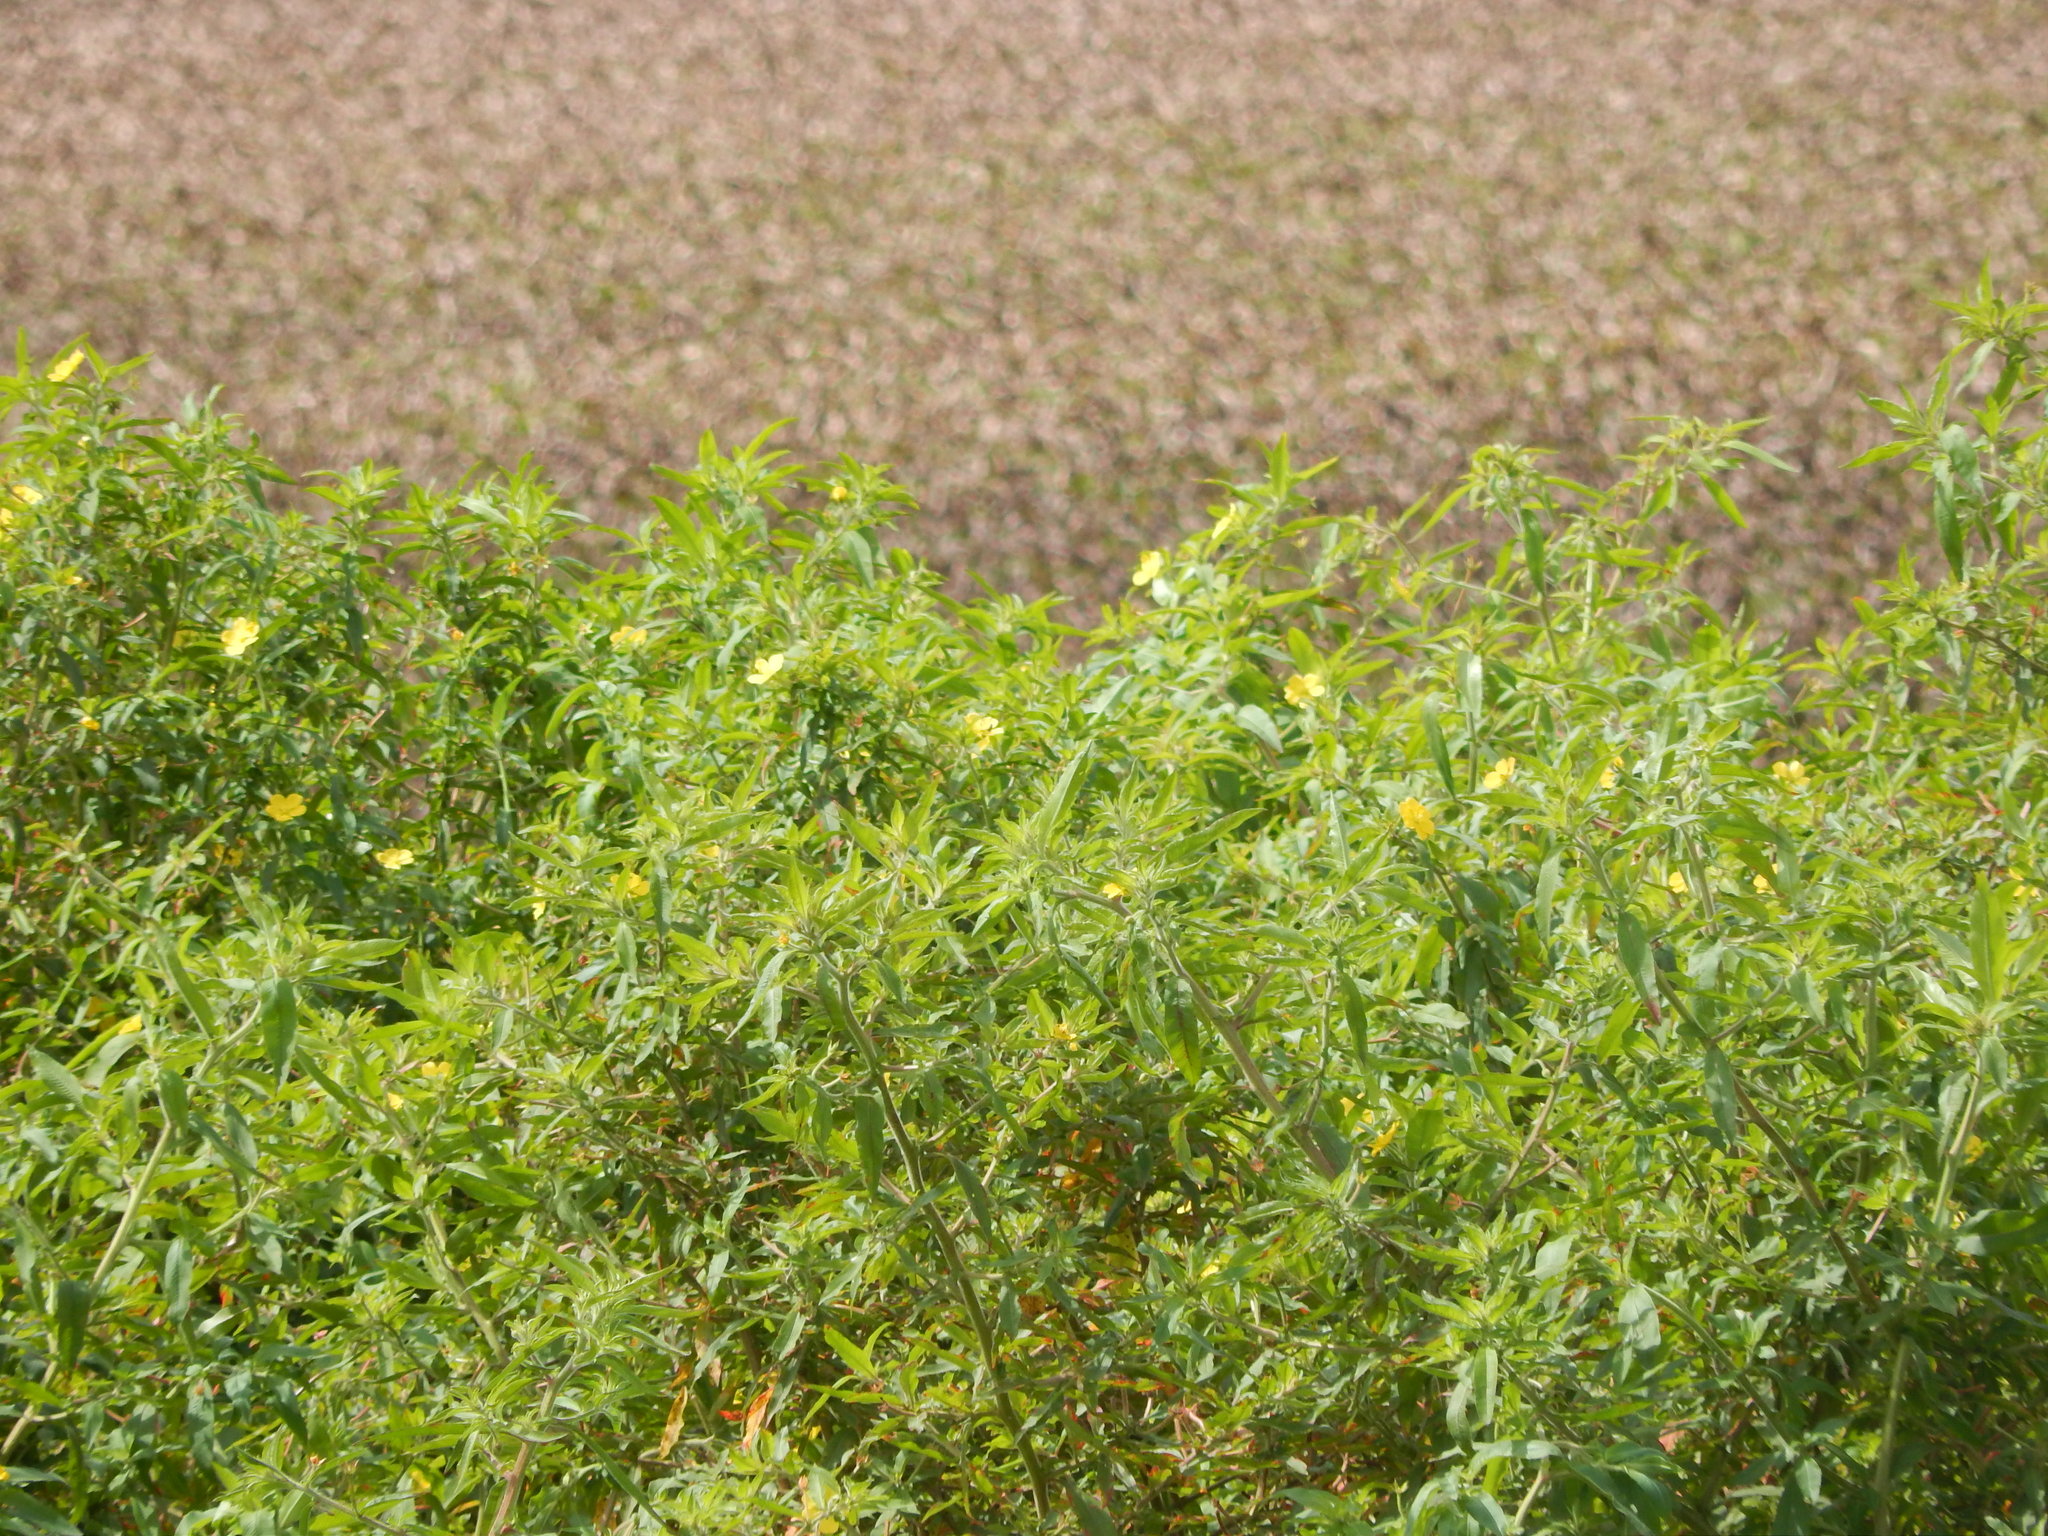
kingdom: Plantae
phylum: Tracheophyta
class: Magnoliopsida
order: Myrtales
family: Onagraceae
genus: Ludwigia
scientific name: Ludwigia leptocarpa
